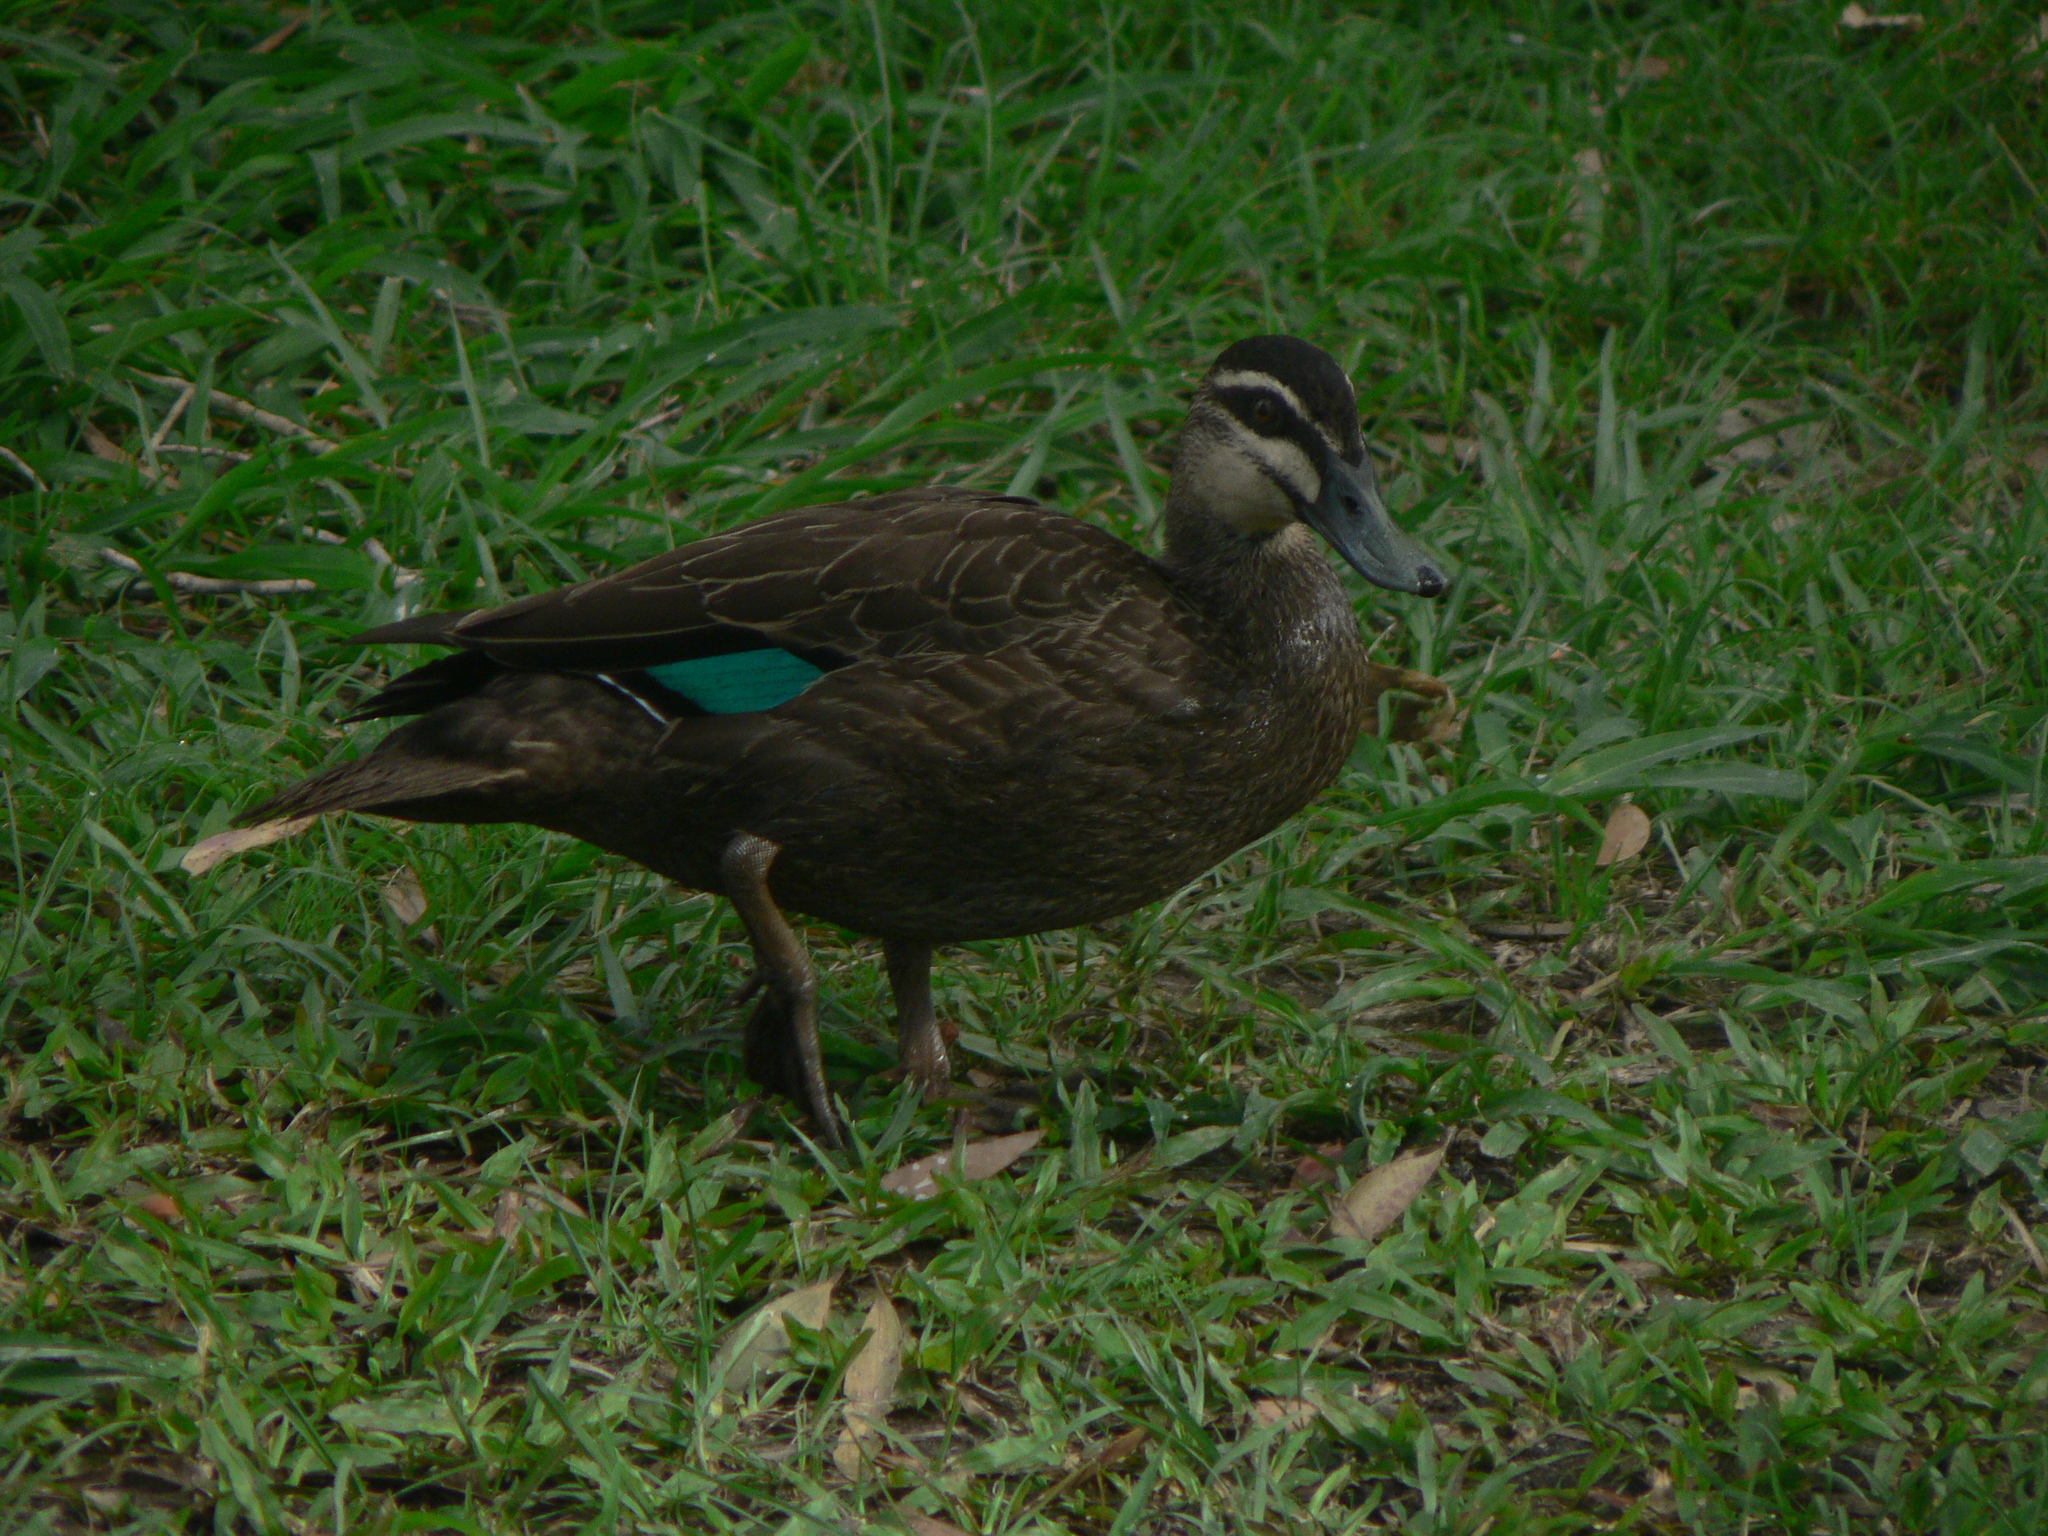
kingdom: Animalia
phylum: Chordata
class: Aves
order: Anseriformes
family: Anatidae
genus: Anas
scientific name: Anas superciliosa
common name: Pacific black duck
